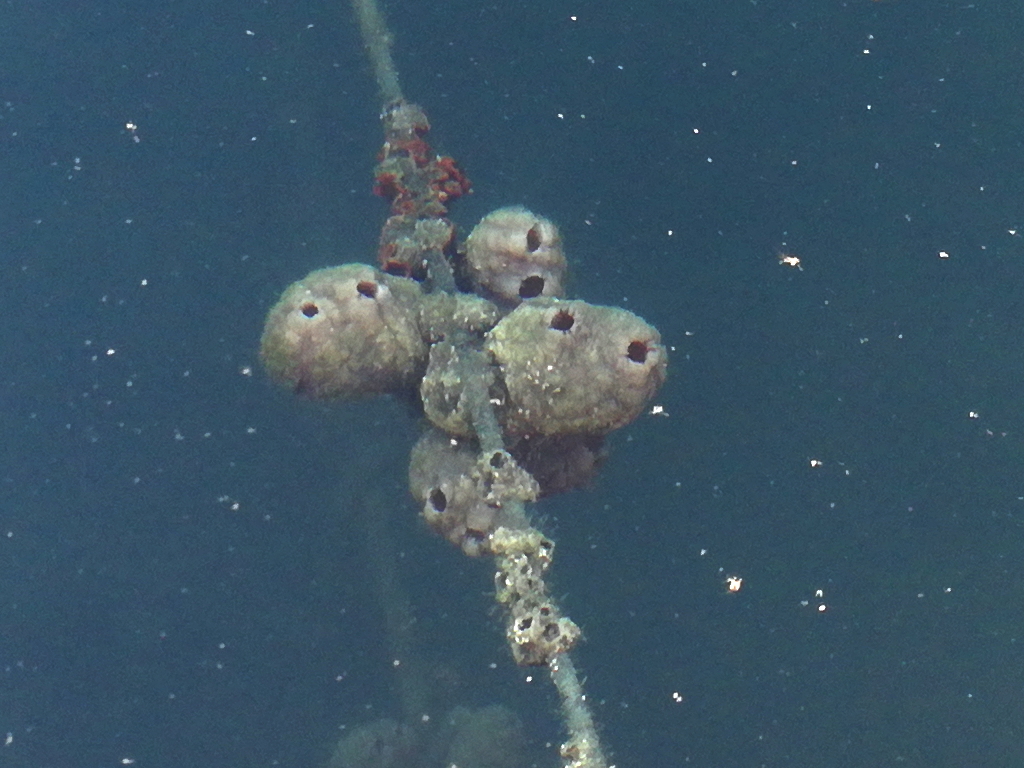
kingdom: Animalia
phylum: Chordata
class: Ascidiacea
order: Stolidobranchia
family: Styelidae
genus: Styela
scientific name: Styela plicata
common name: Pleated tunicate
